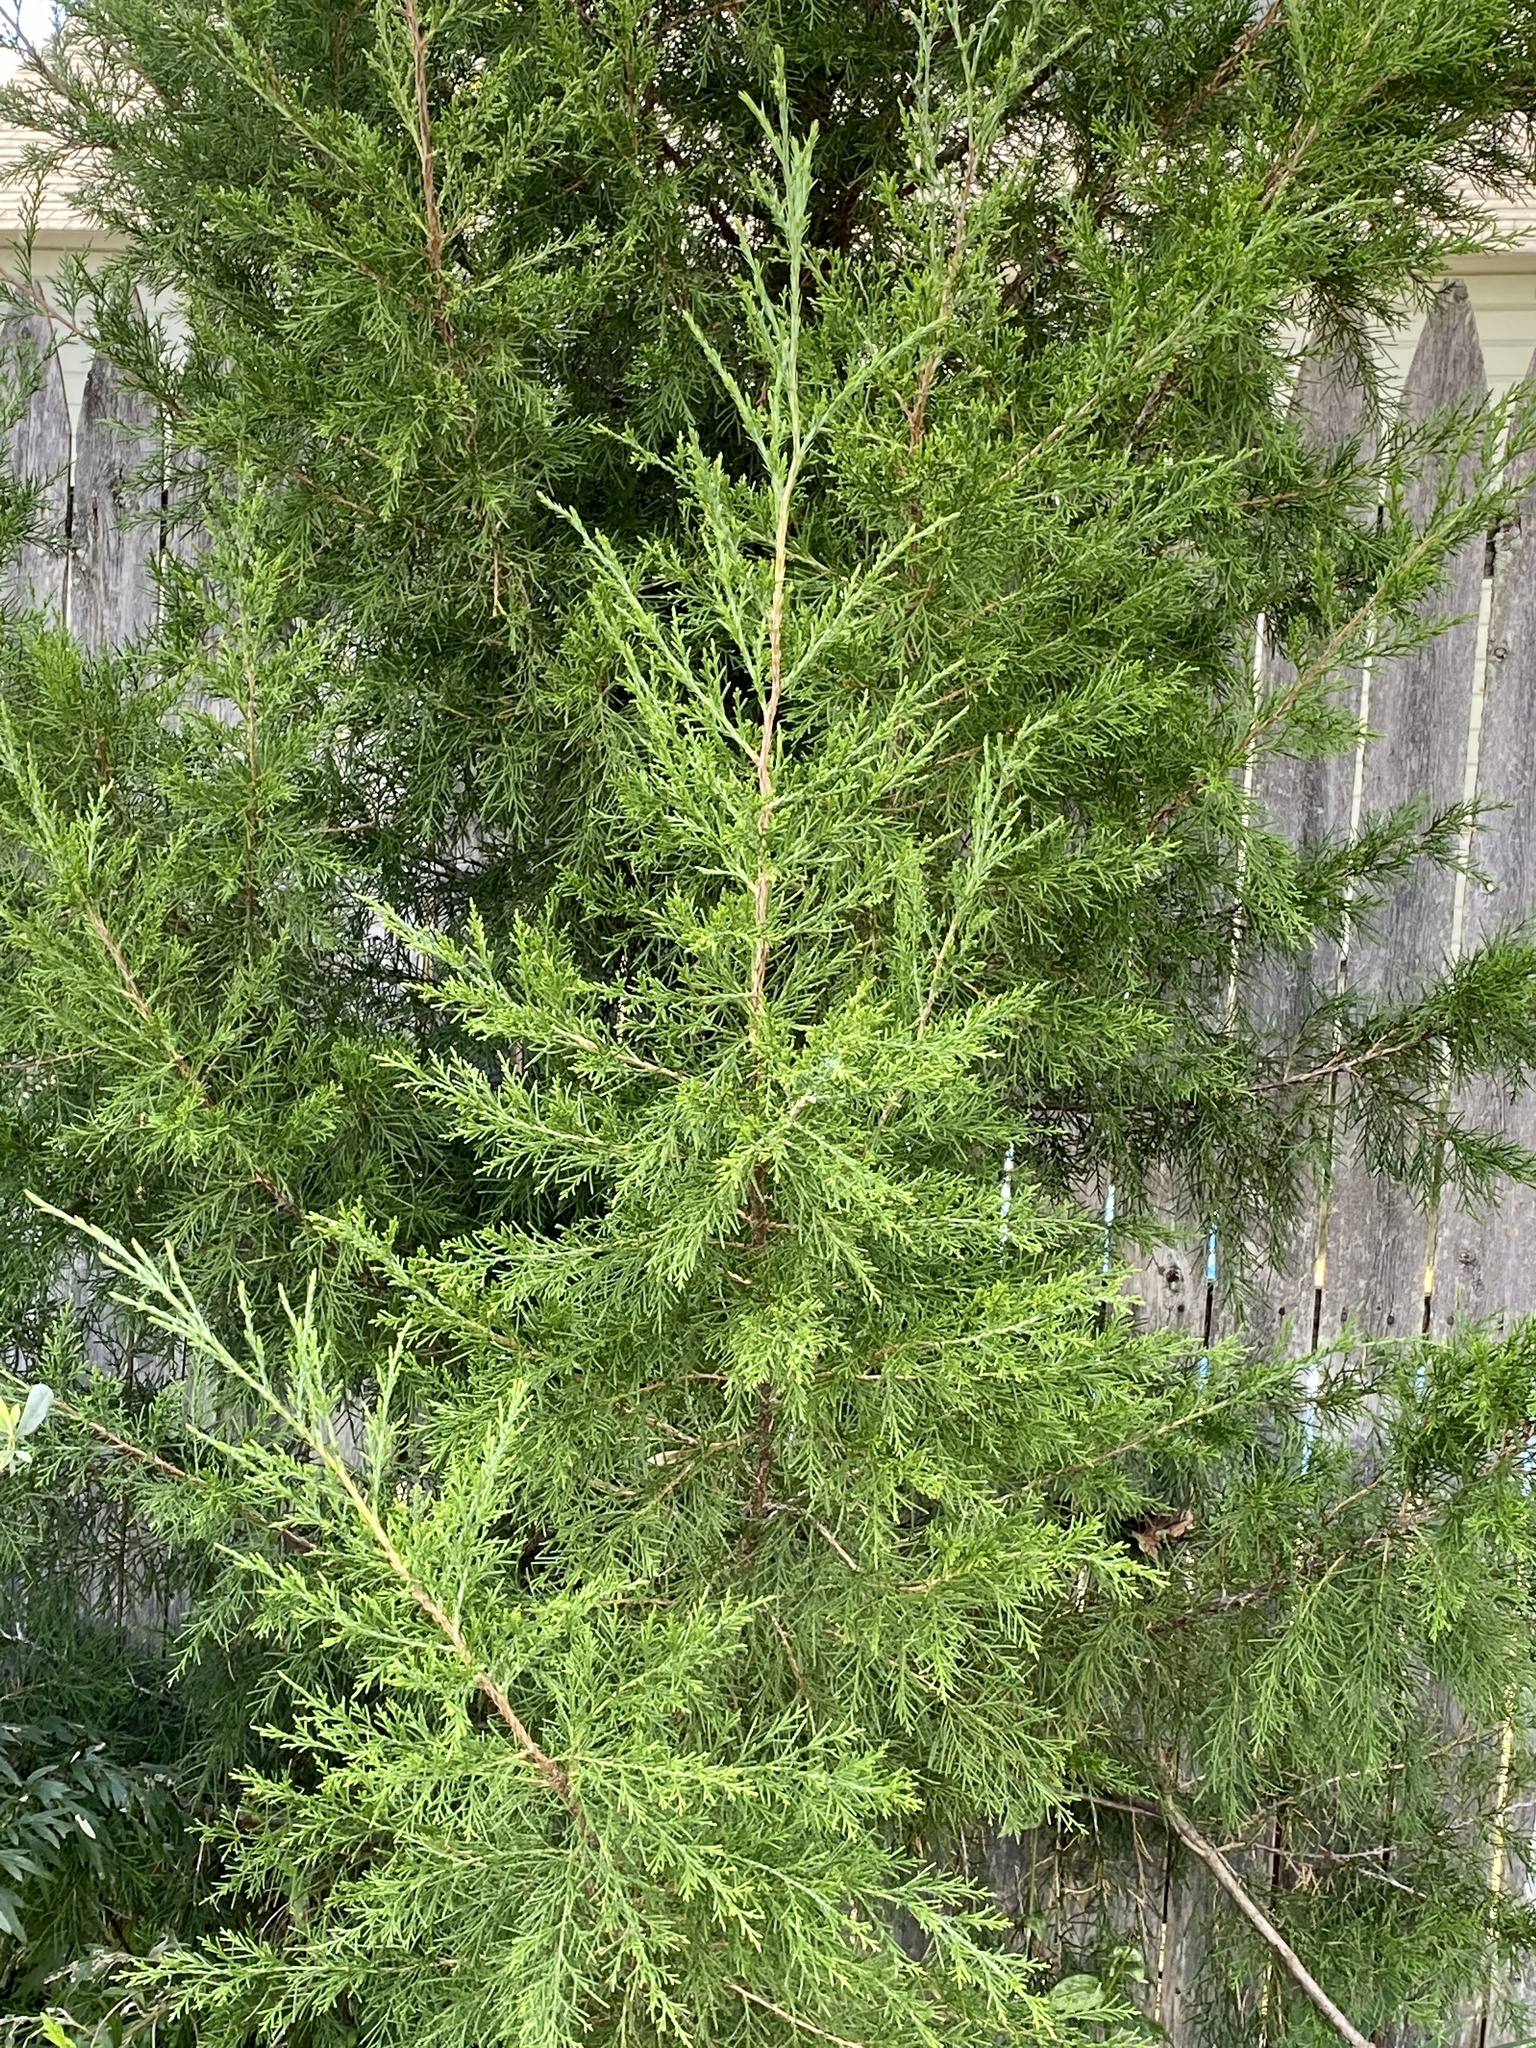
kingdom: Plantae
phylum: Tracheophyta
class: Pinopsida
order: Pinales
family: Cupressaceae
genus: Juniperus
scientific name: Juniperus virginiana
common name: Red juniper
